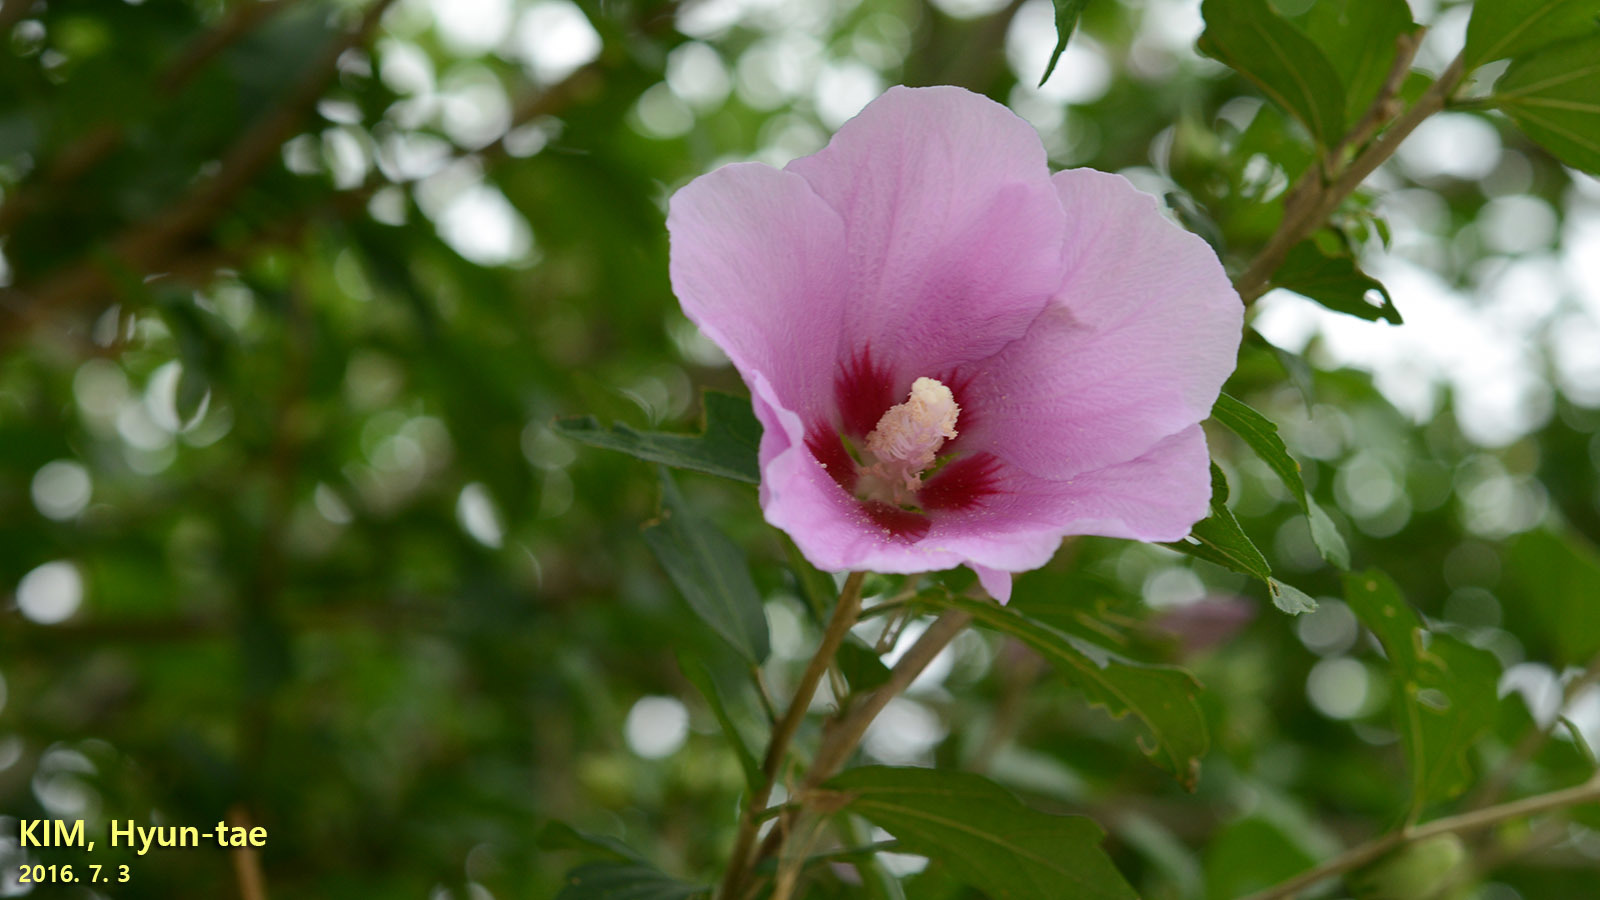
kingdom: Plantae
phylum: Tracheophyta
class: Magnoliopsida
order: Malvales
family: Malvaceae
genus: Hibiscus
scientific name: Hibiscus syriacus
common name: Syrian ketmia
